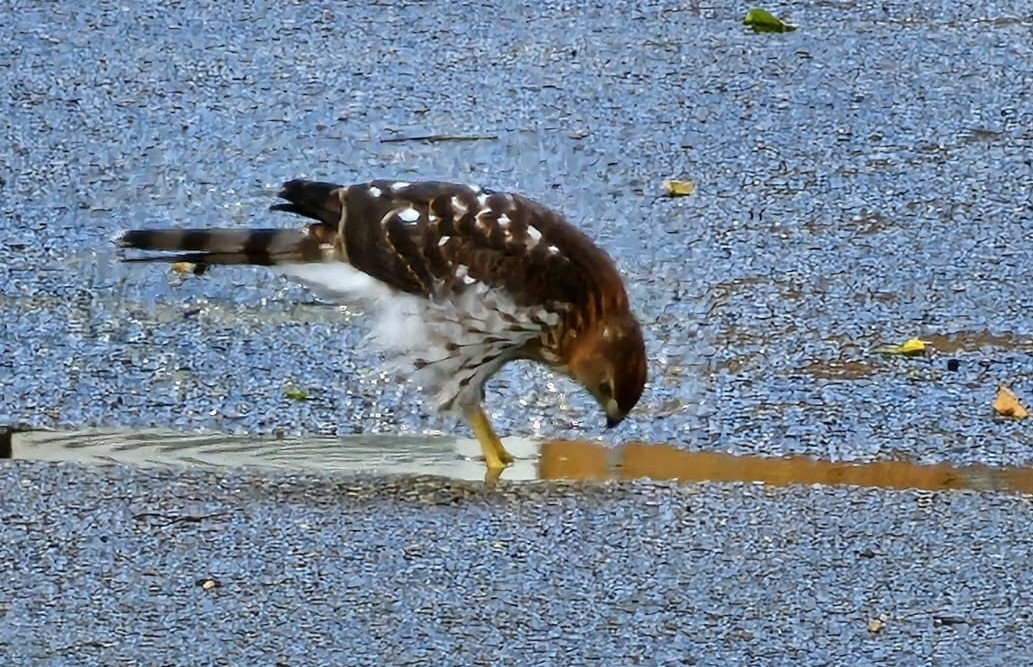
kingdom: Animalia
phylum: Chordata
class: Aves
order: Accipitriformes
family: Accipitridae
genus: Accipiter
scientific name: Accipiter cooperii
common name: Cooper's hawk
